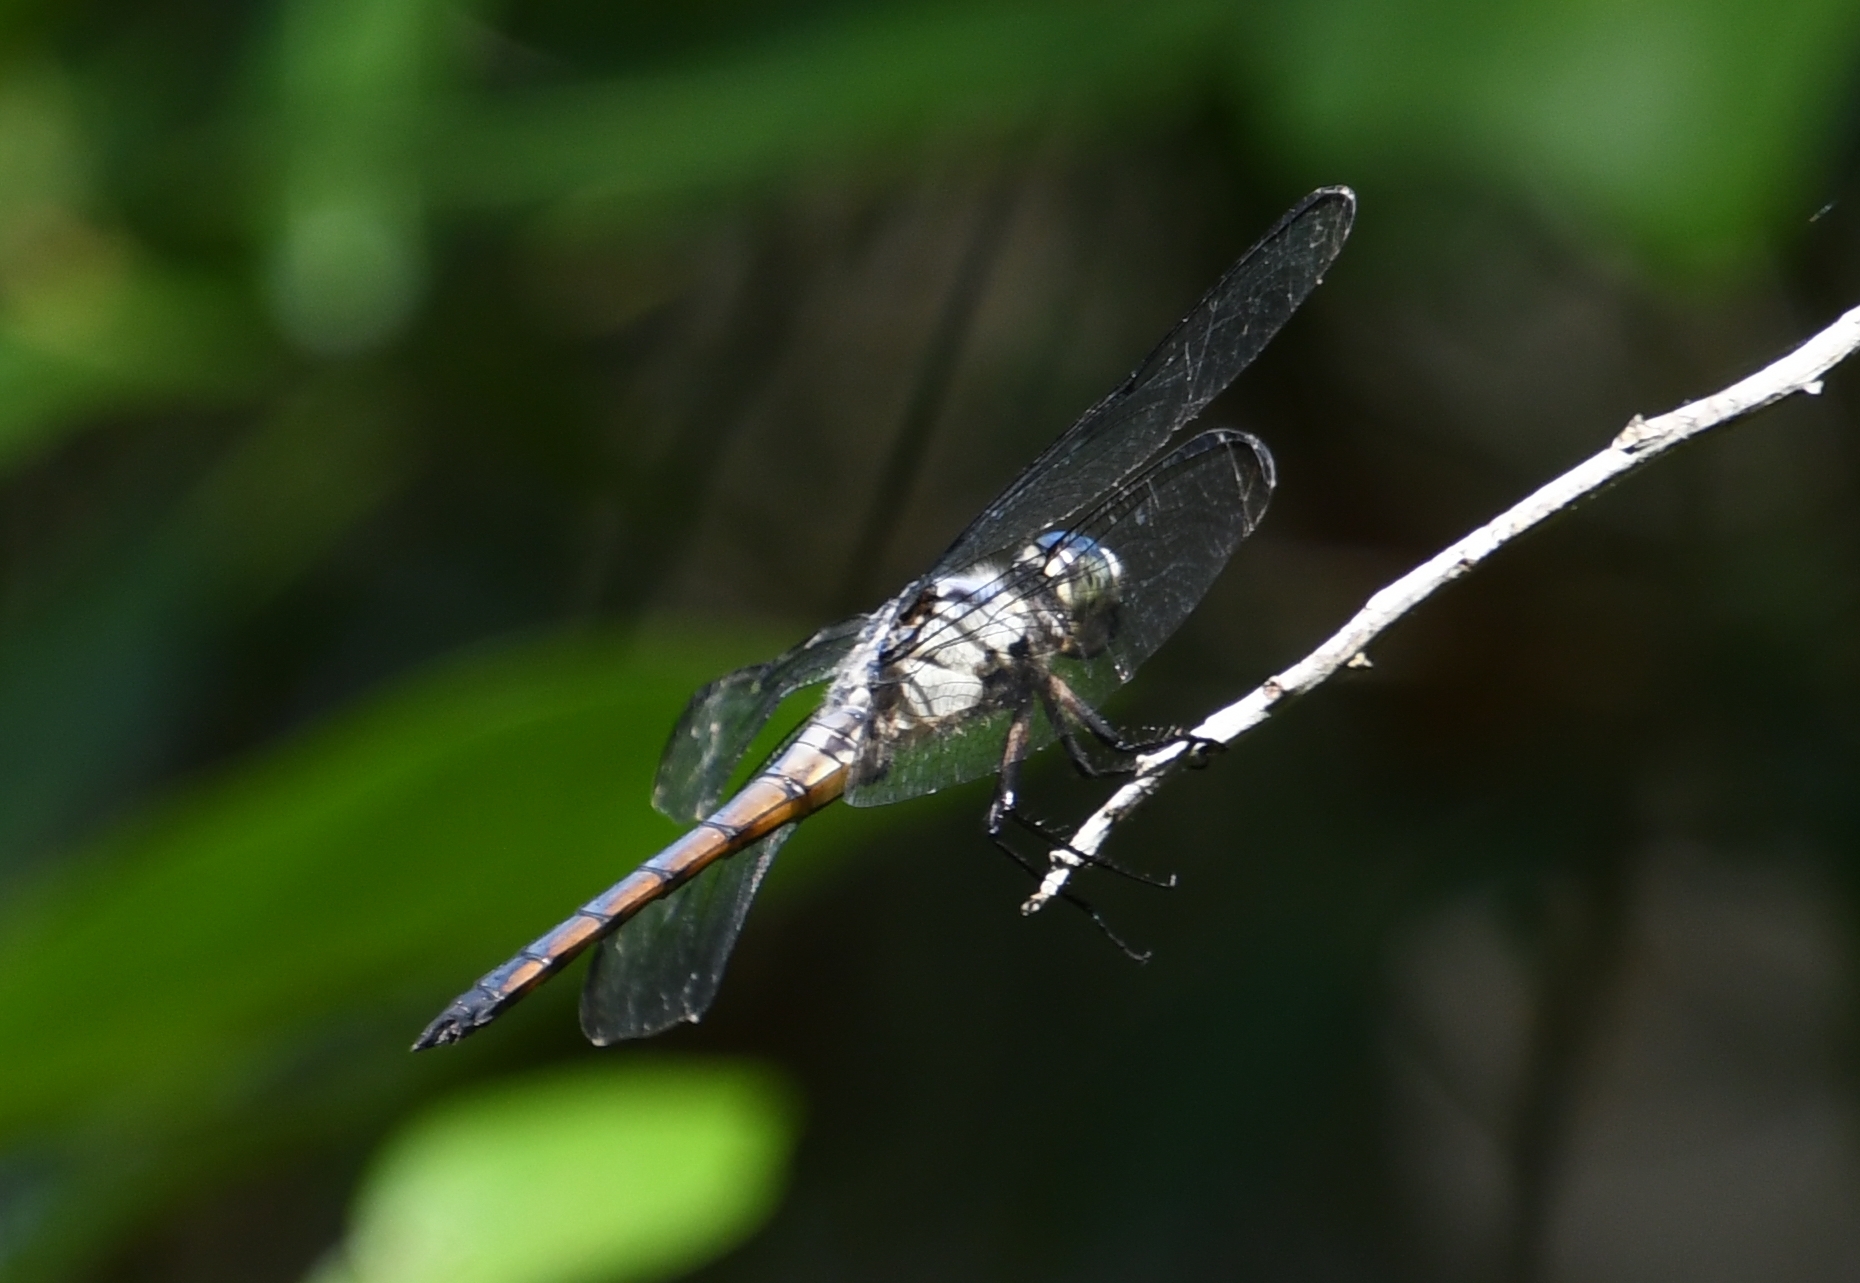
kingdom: Animalia
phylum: Arthropoda
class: Insecta
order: Odonata
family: Libellulidae
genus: Libellula
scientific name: Libellula vibrans
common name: Great blue skimmer
